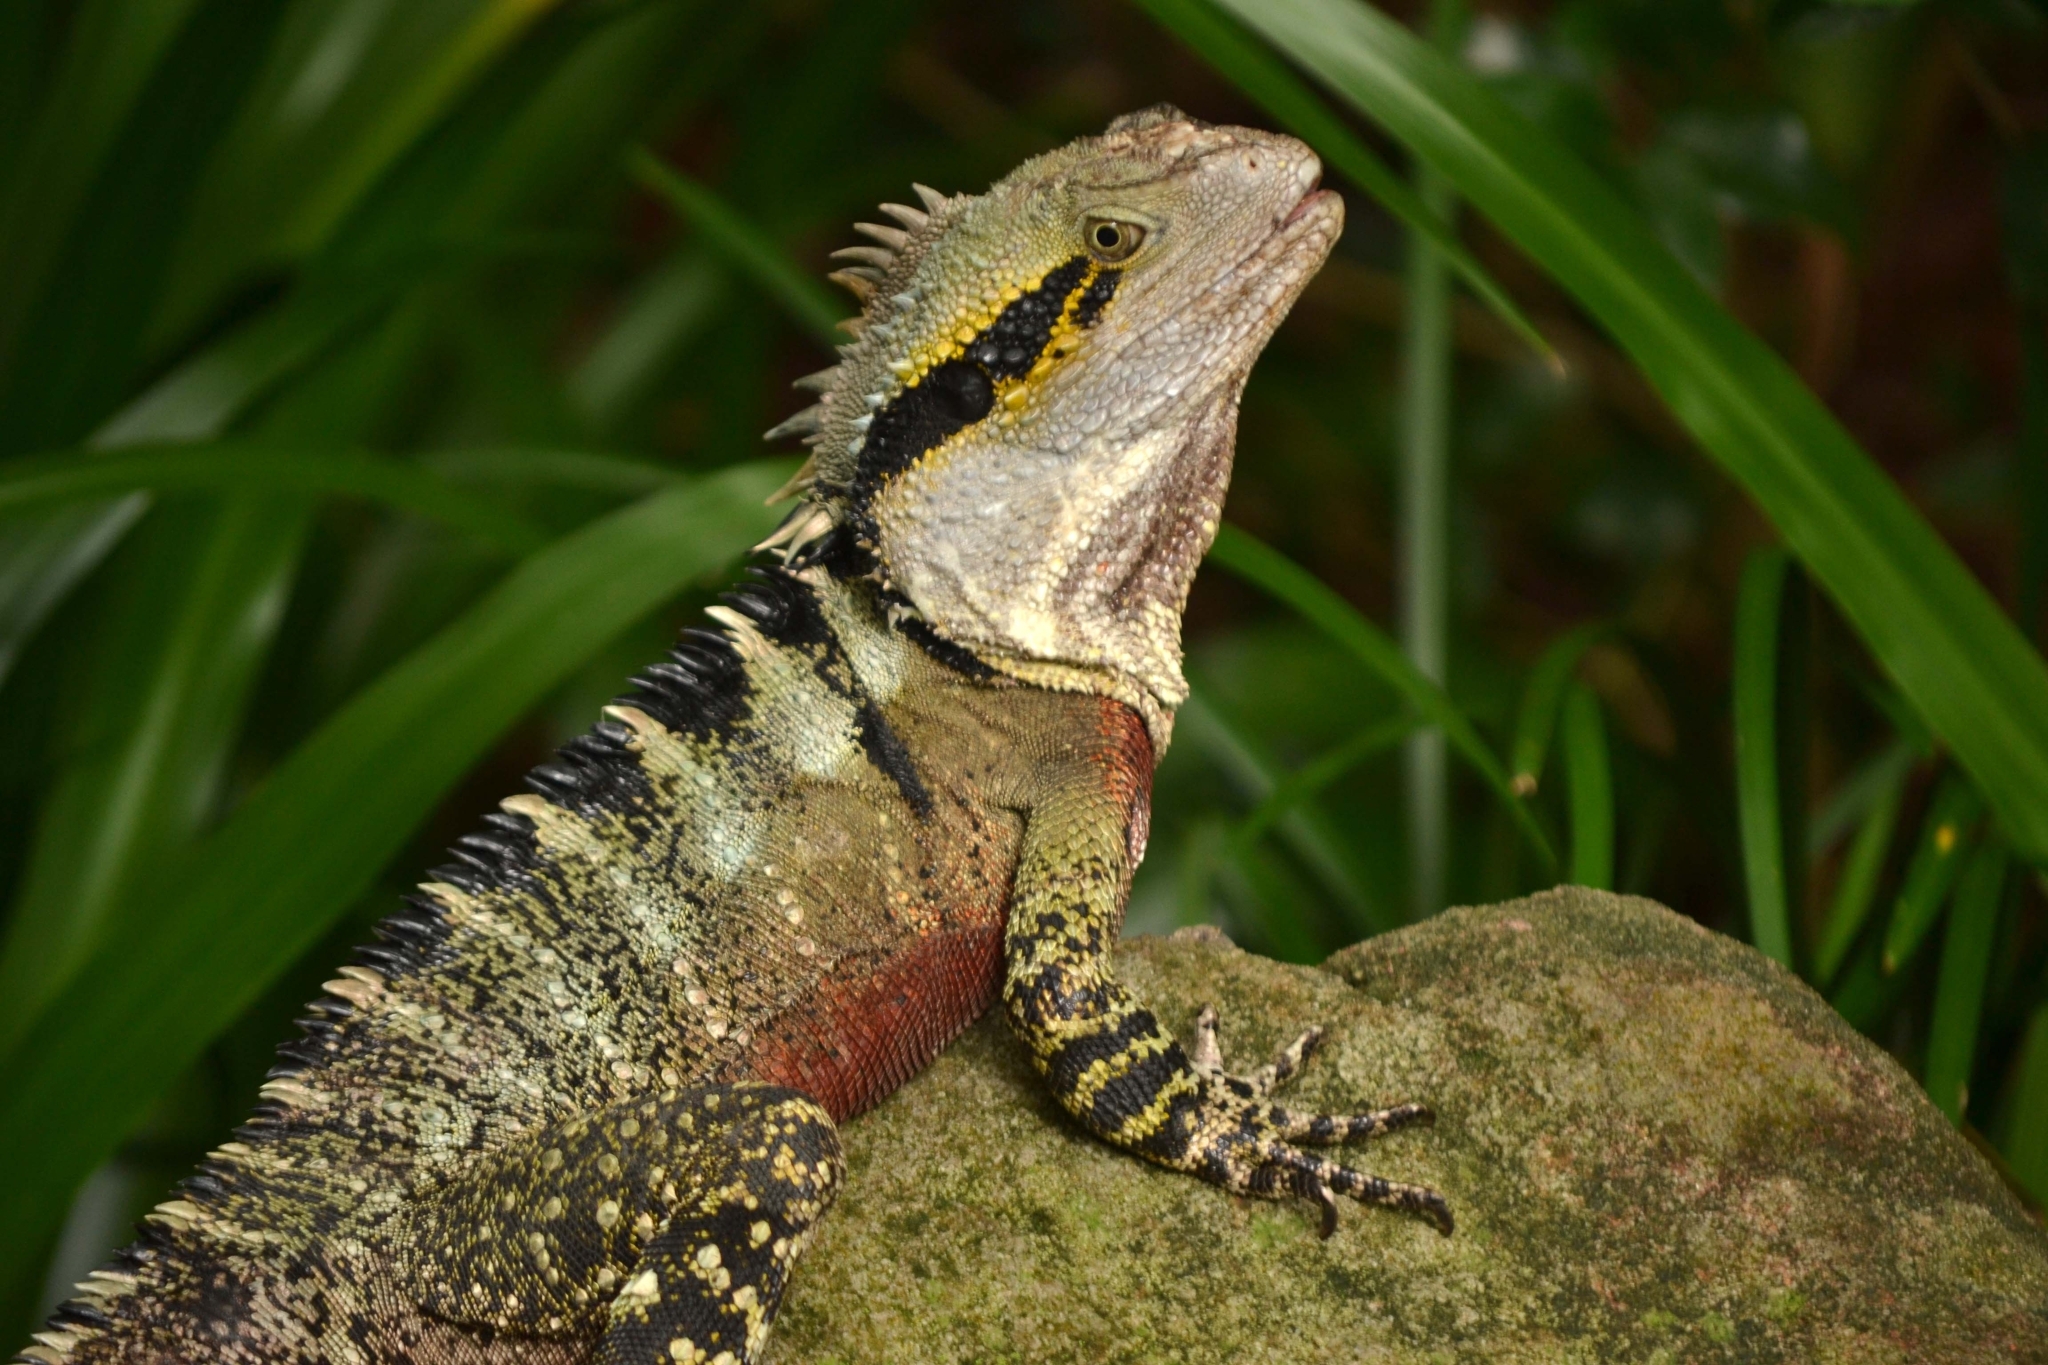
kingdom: Animalia
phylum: Chordata
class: Squamata
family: Agamidae
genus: Intellagama
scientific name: Intellagama lesueurii
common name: Eastern water dragon
